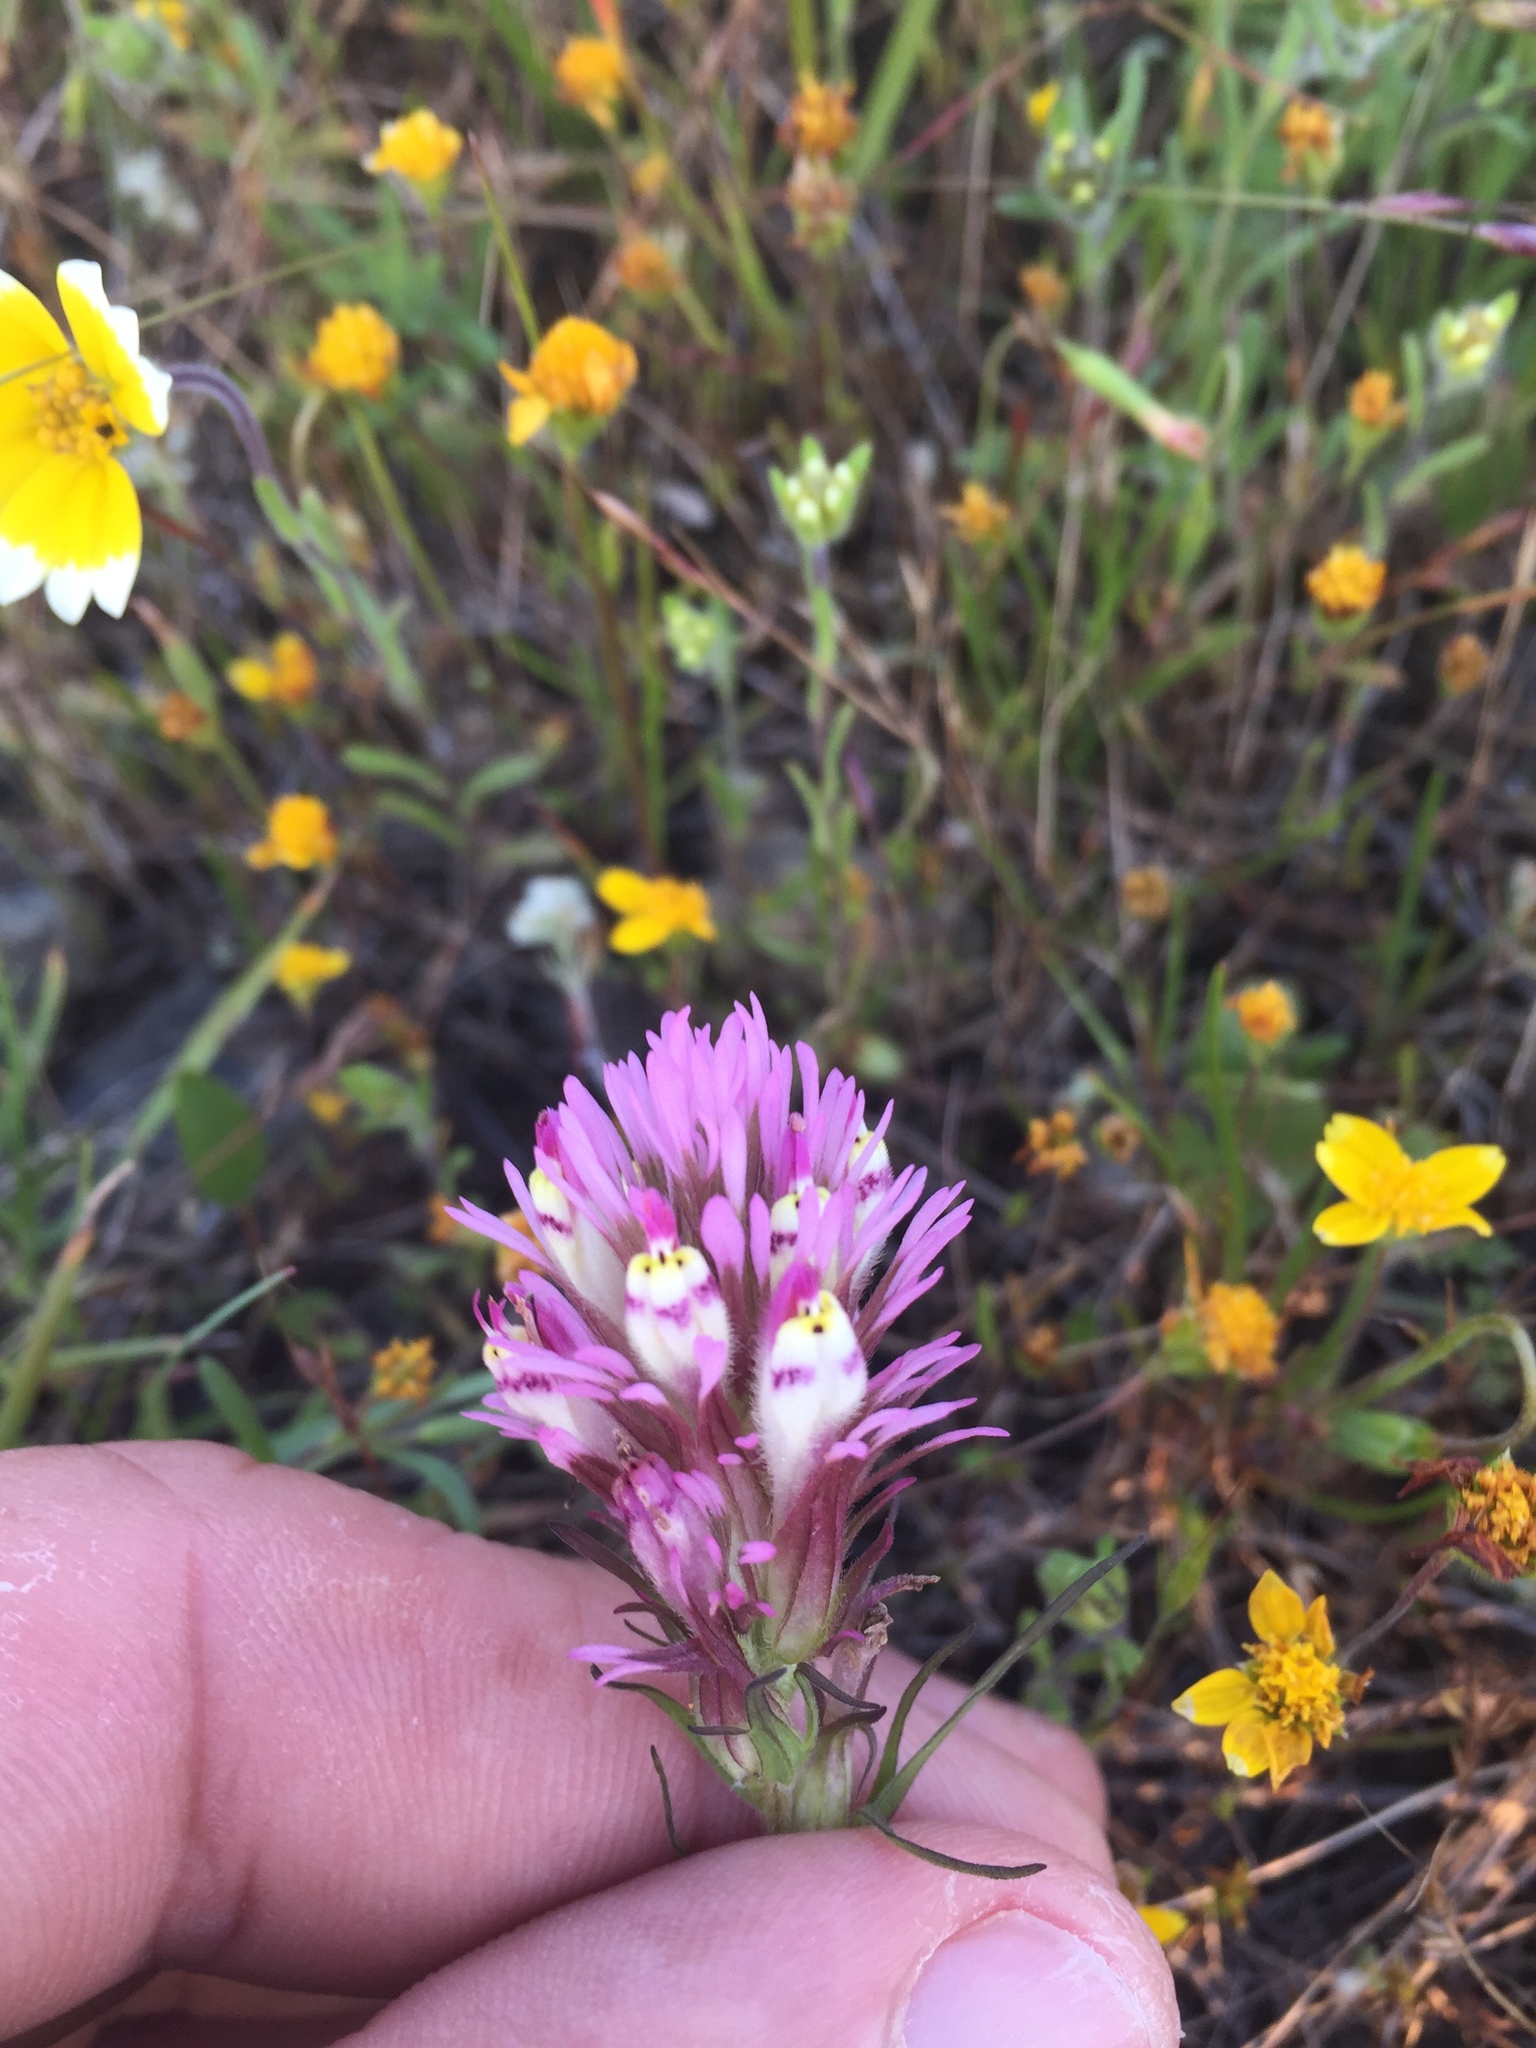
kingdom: Plantae
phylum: Tracheophyta
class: Magnoliopsida
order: Lamiales
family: Orobanchaceae
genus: Castilleja
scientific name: Castilleja densiflora
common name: Dense-flower indian paintbrush
